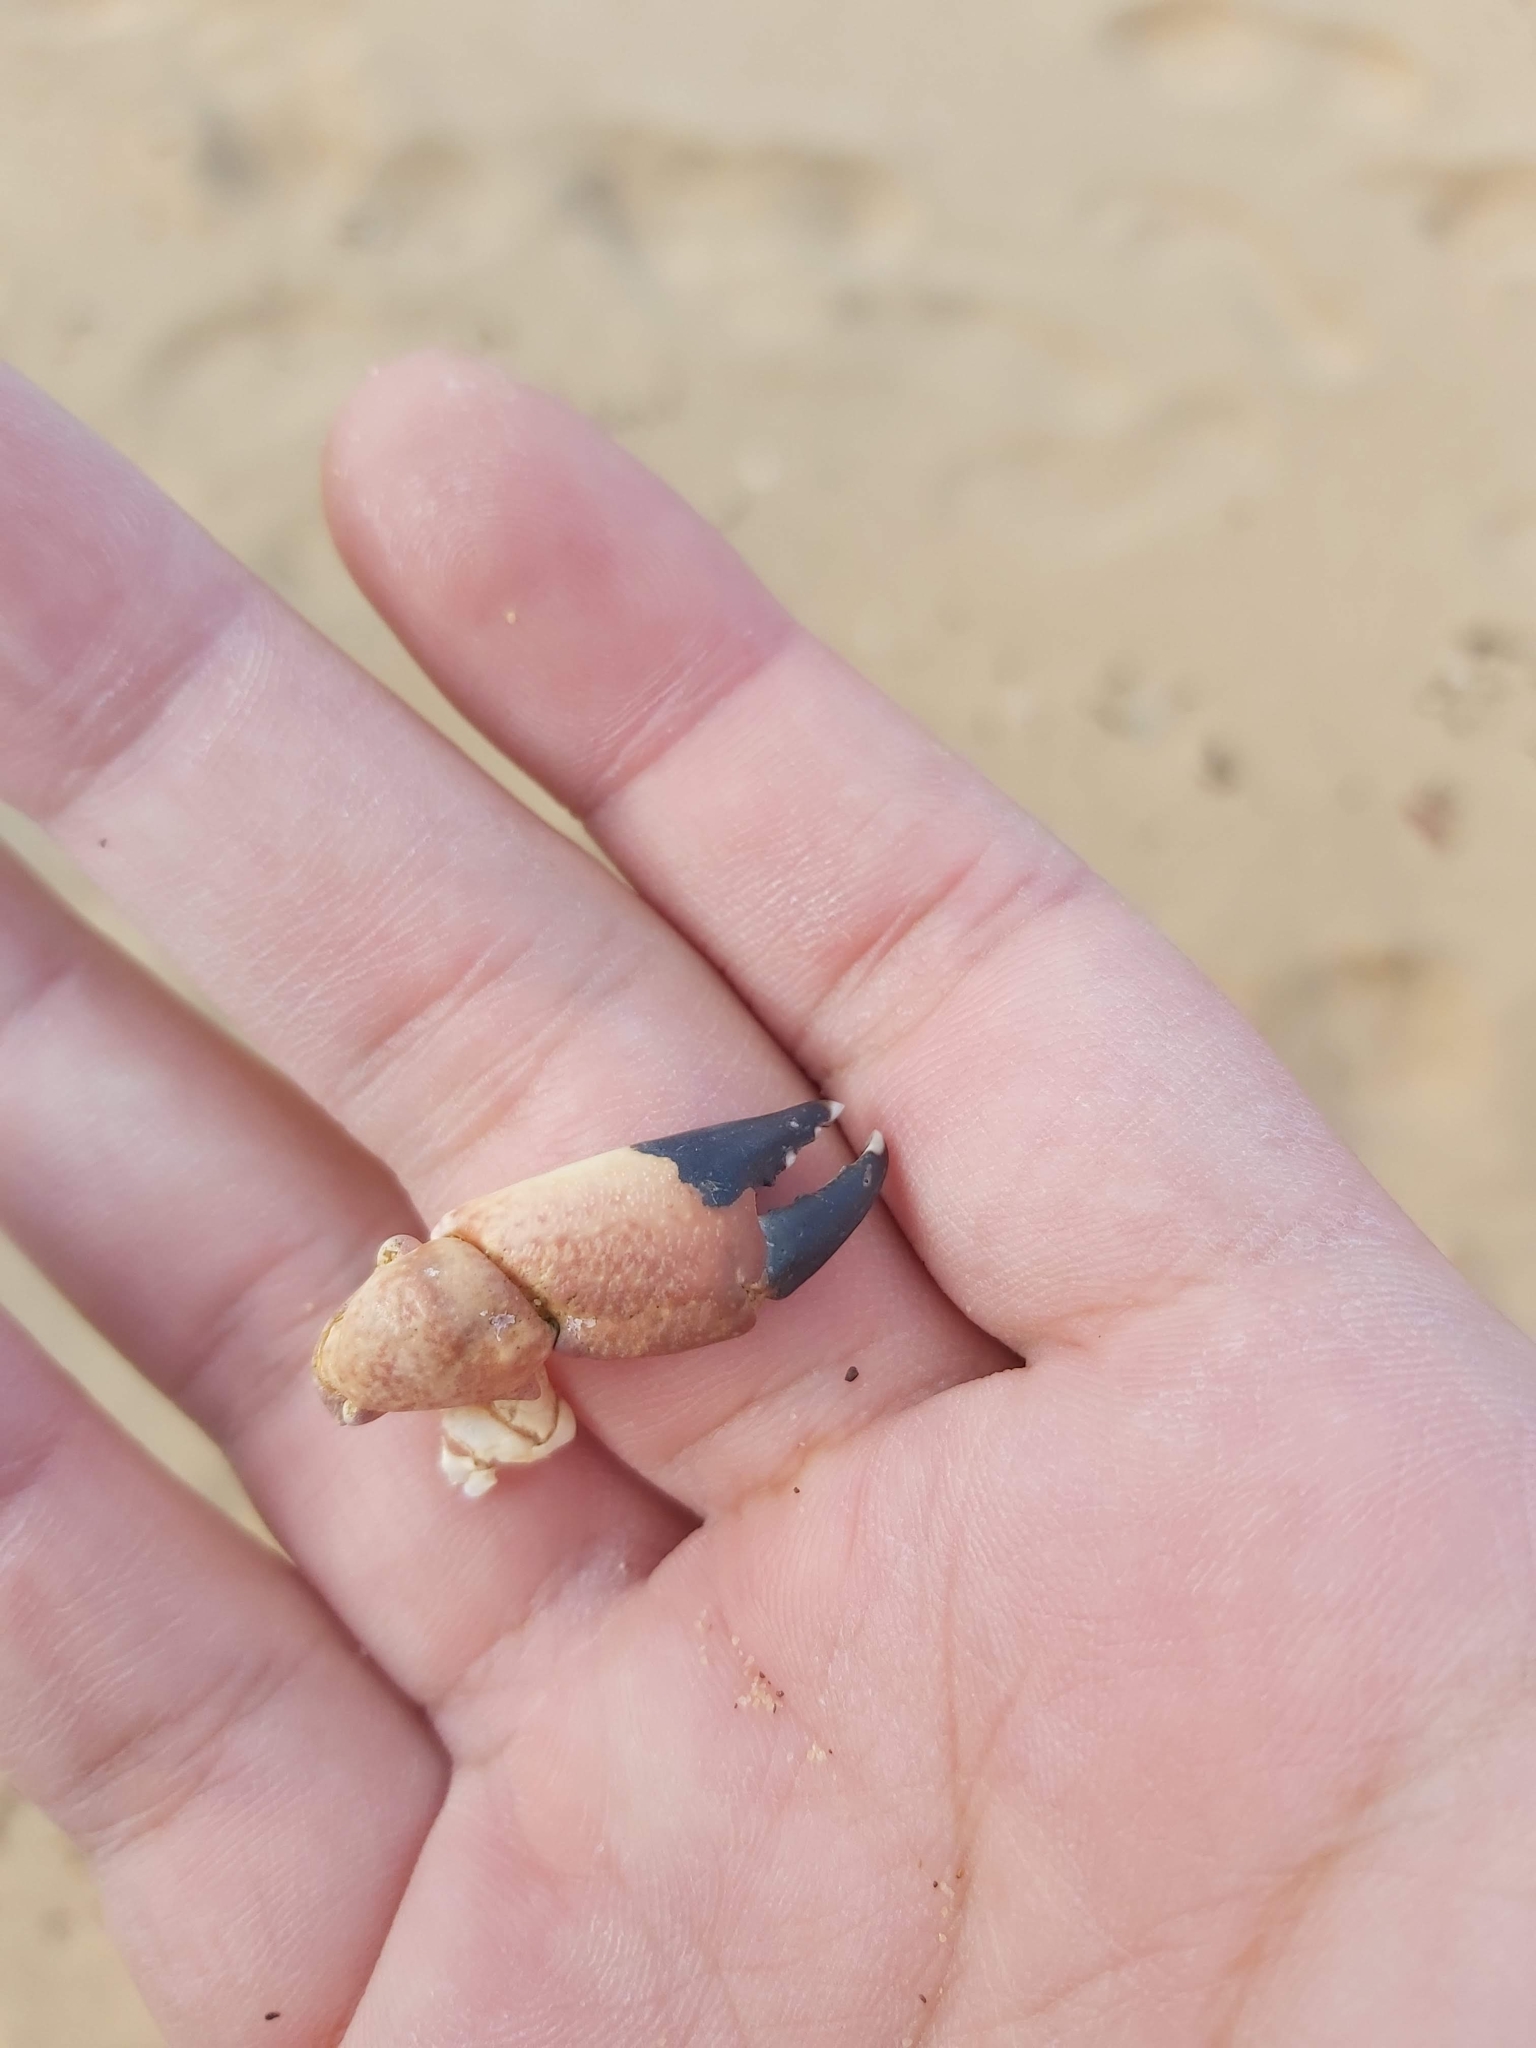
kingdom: Animalia
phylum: Arthropoda
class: Malacostraca
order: Decapoda
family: Oziidae
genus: Ozius
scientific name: Ozius truncatus
